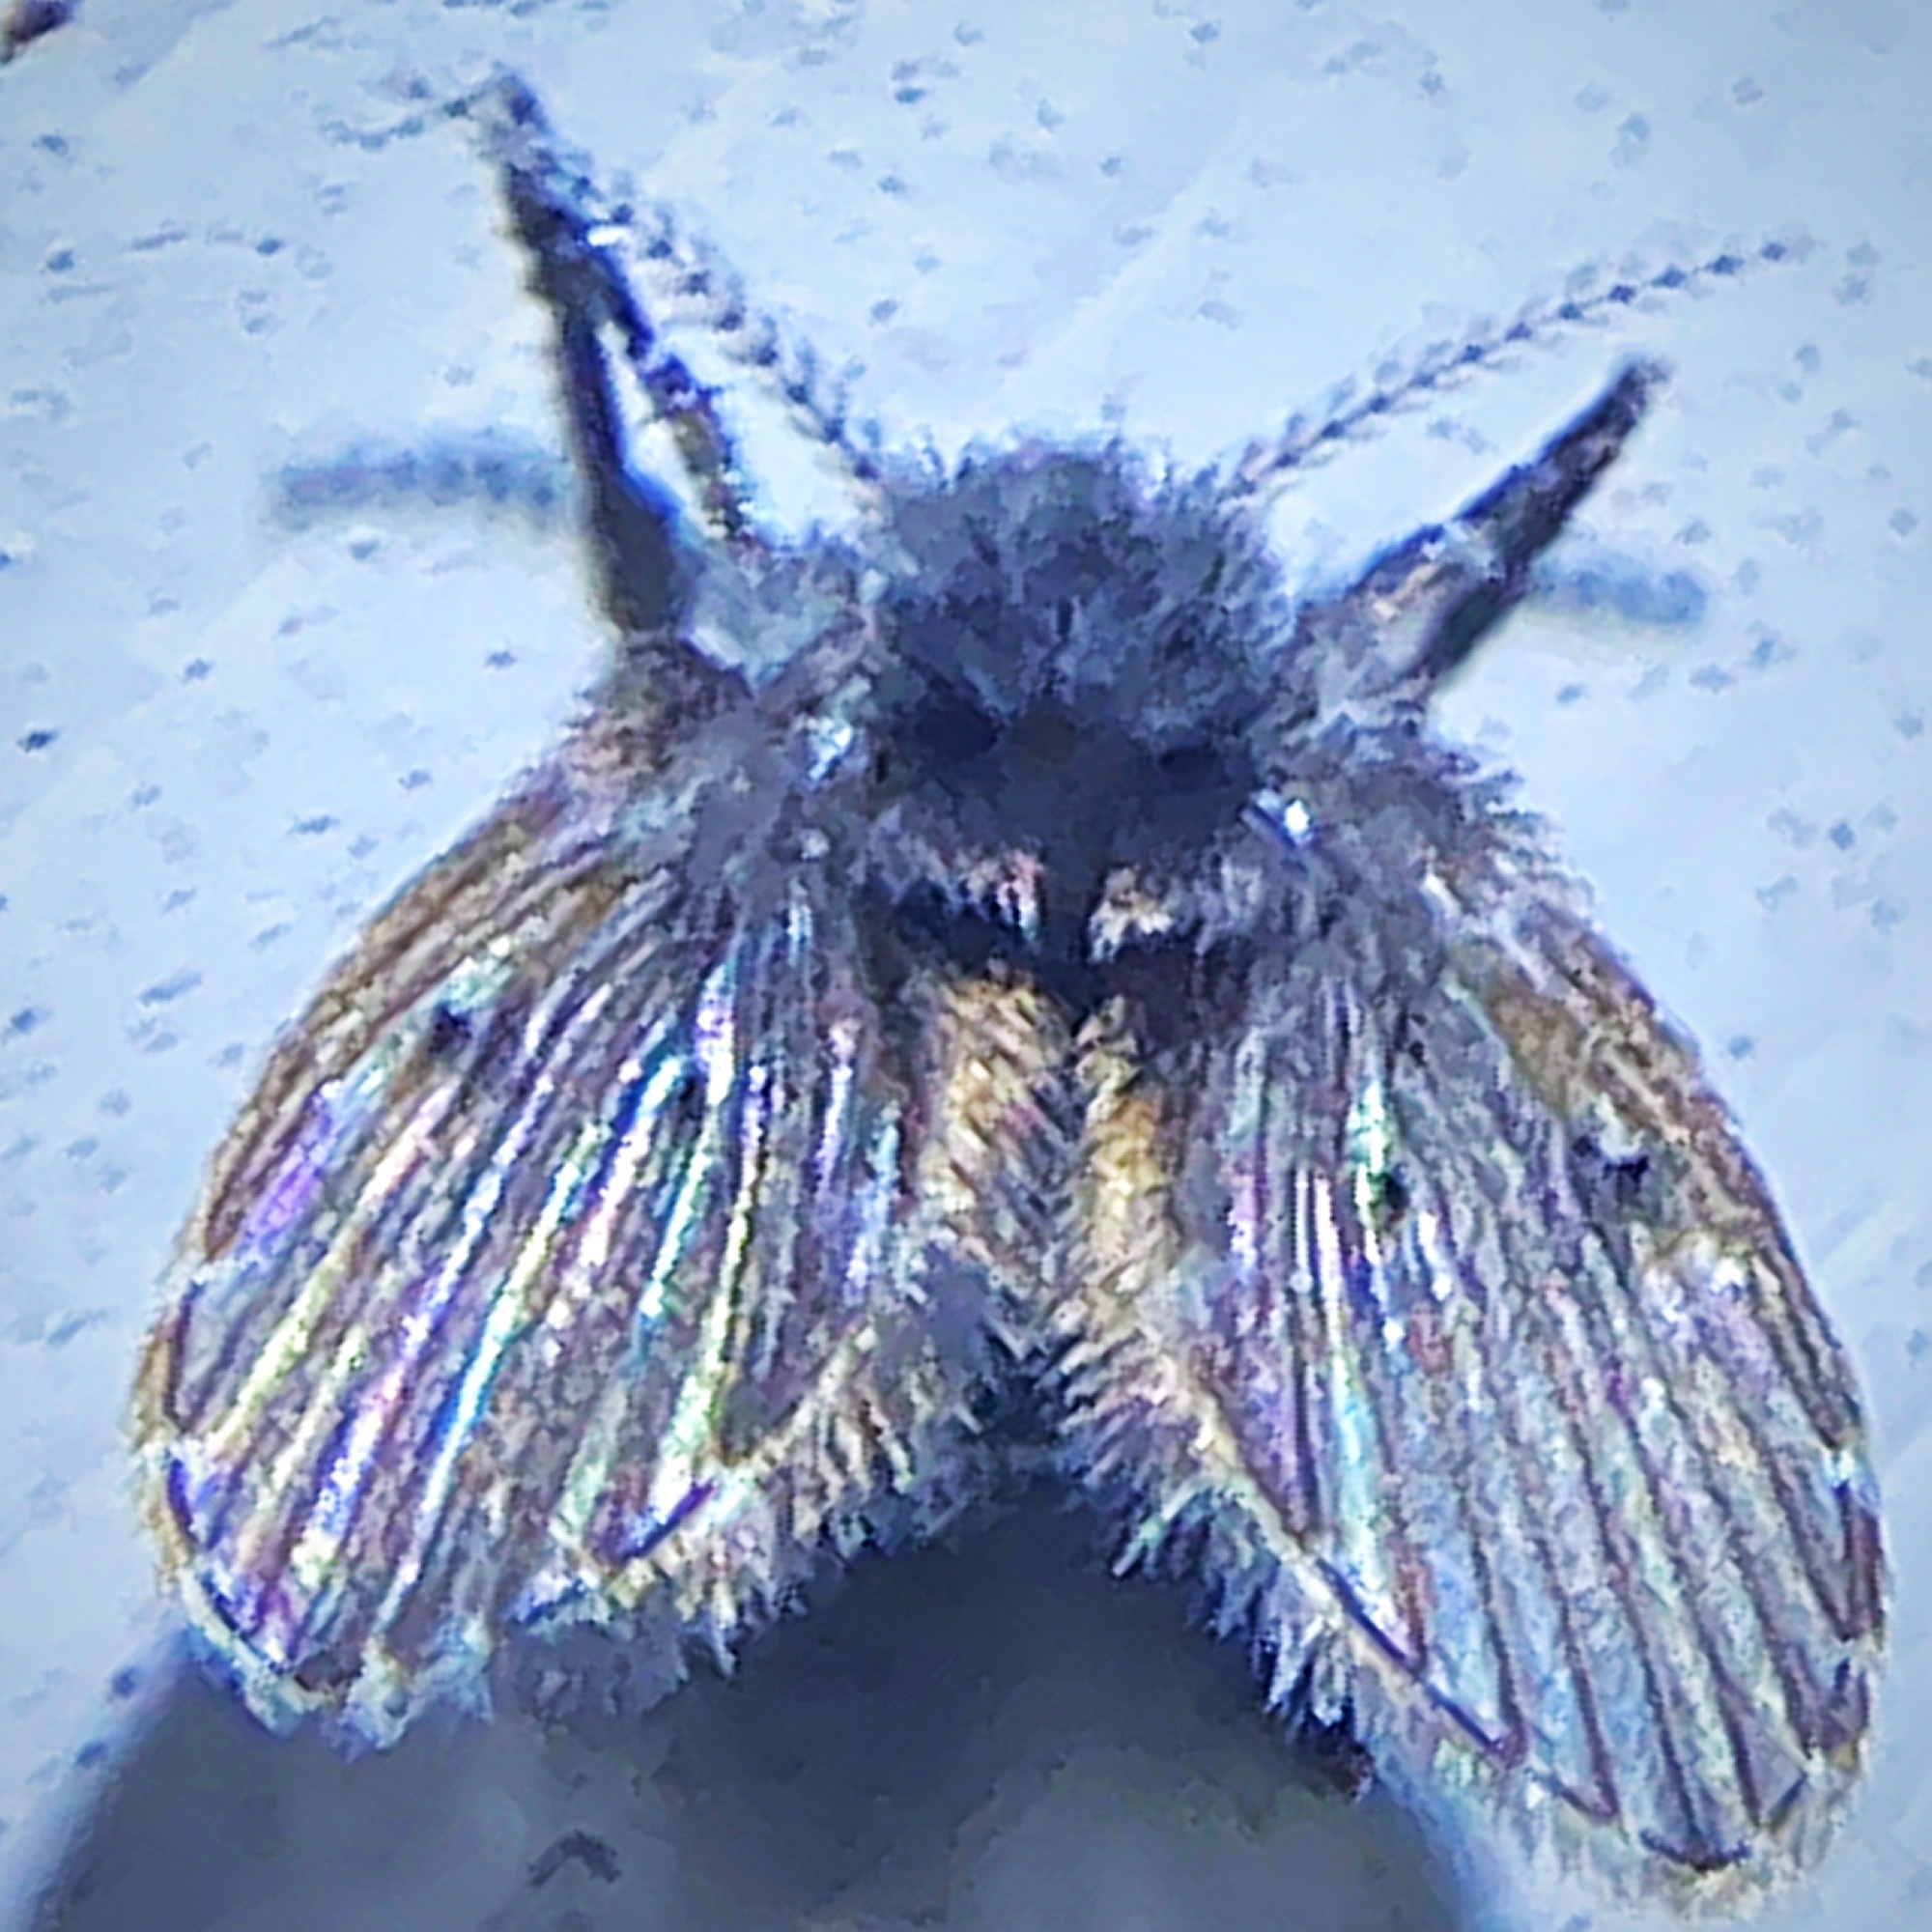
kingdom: Animalia
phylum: Arthropoda
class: Insecta
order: Diptera
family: Psychodidae
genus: Clogmia
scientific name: Clogmia albipunctatus
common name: White-spotted moth fly
